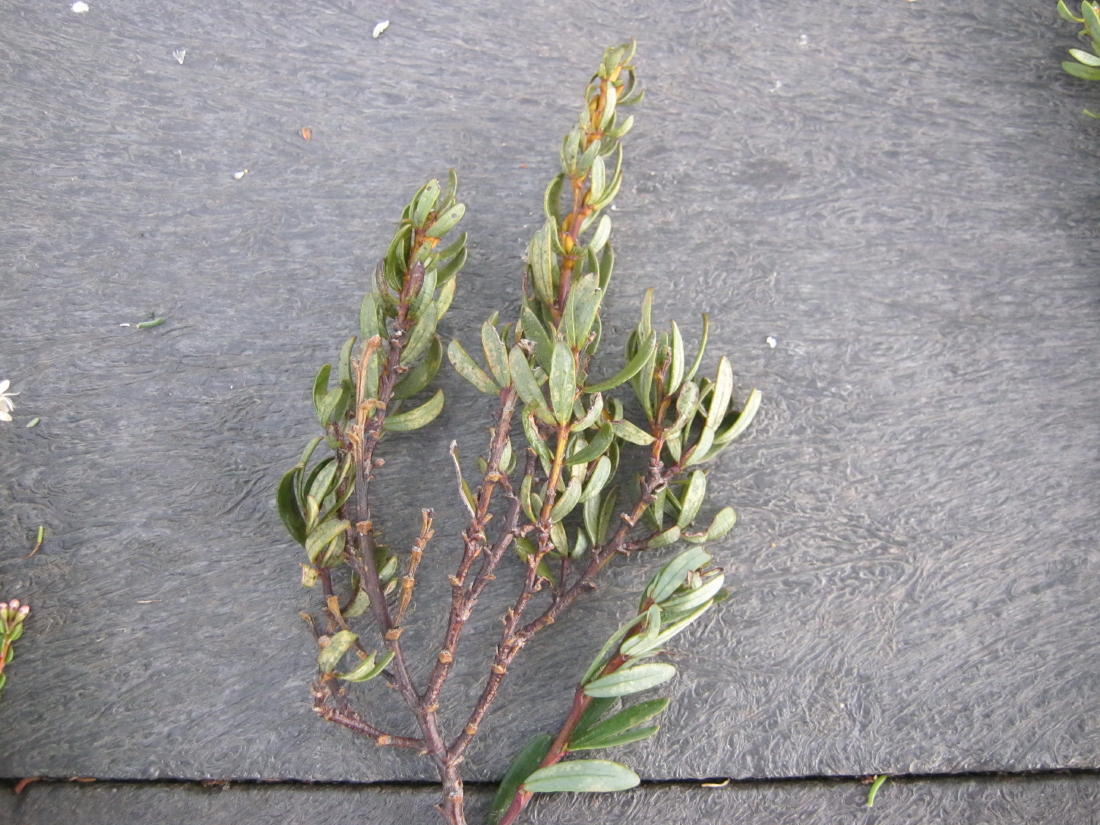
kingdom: Plantae
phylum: Tracheophyta
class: Magnoliopsida
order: Fabales
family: Fabaceae
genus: Cyclopia
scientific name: Cyclopia intermedia
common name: Mountain tea
